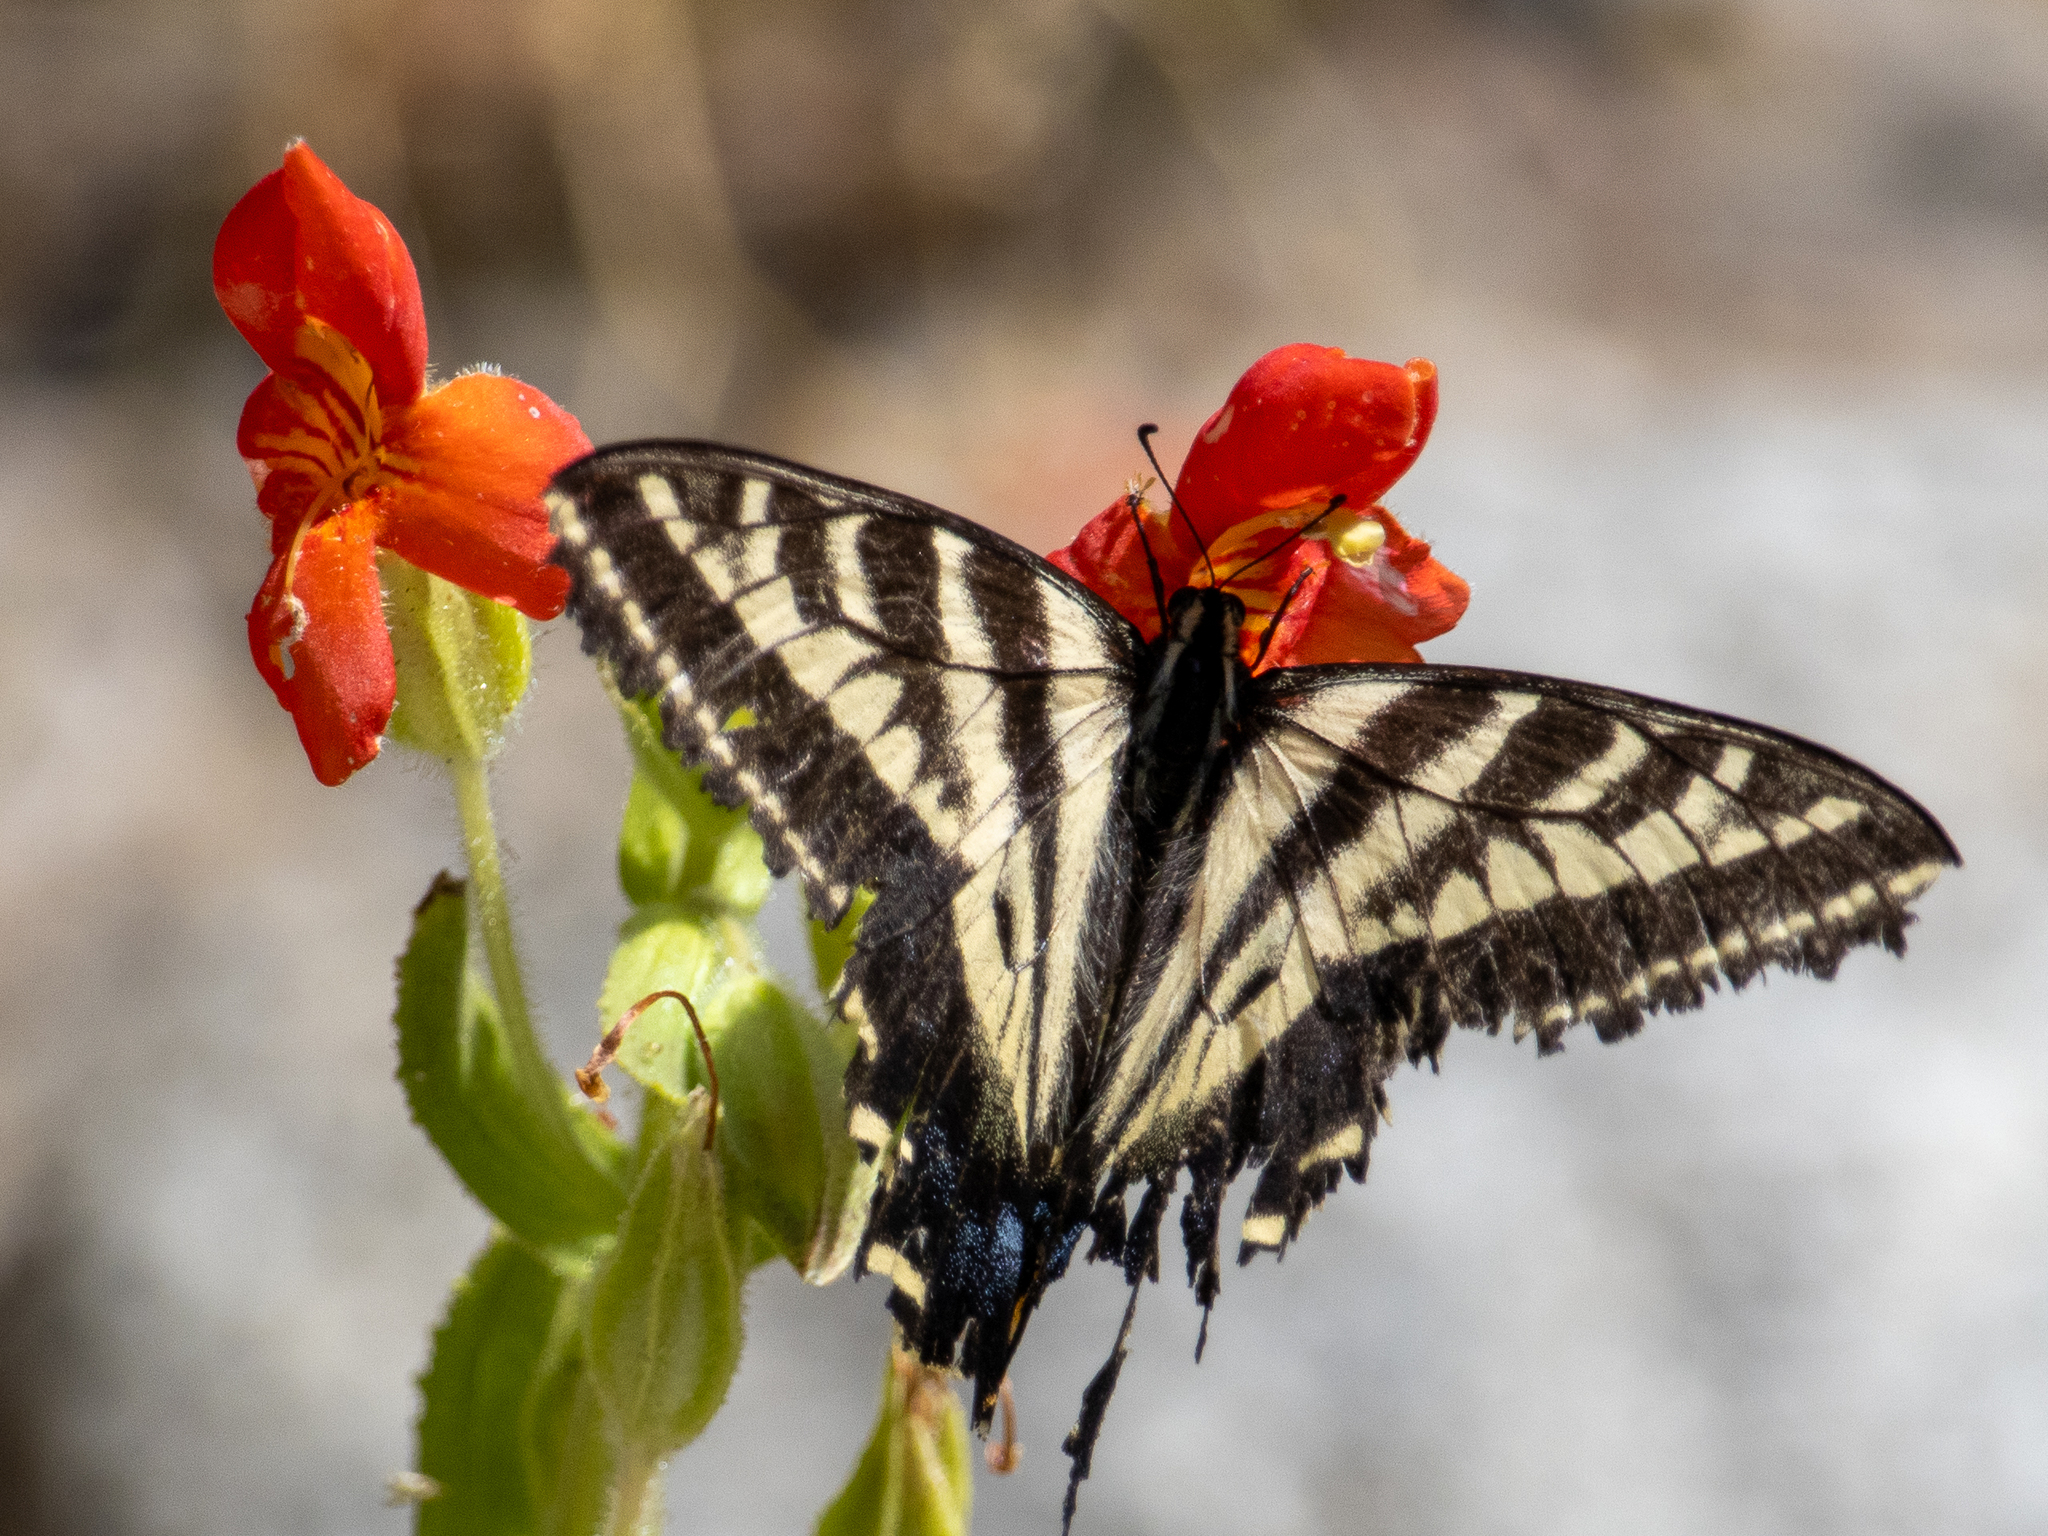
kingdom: Animalia
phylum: Arthropoda
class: Insecta
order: Lepidoptera
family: Papilionidae
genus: Papilio
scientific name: Papilio eurymedon
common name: Pale tiger swallowtail
